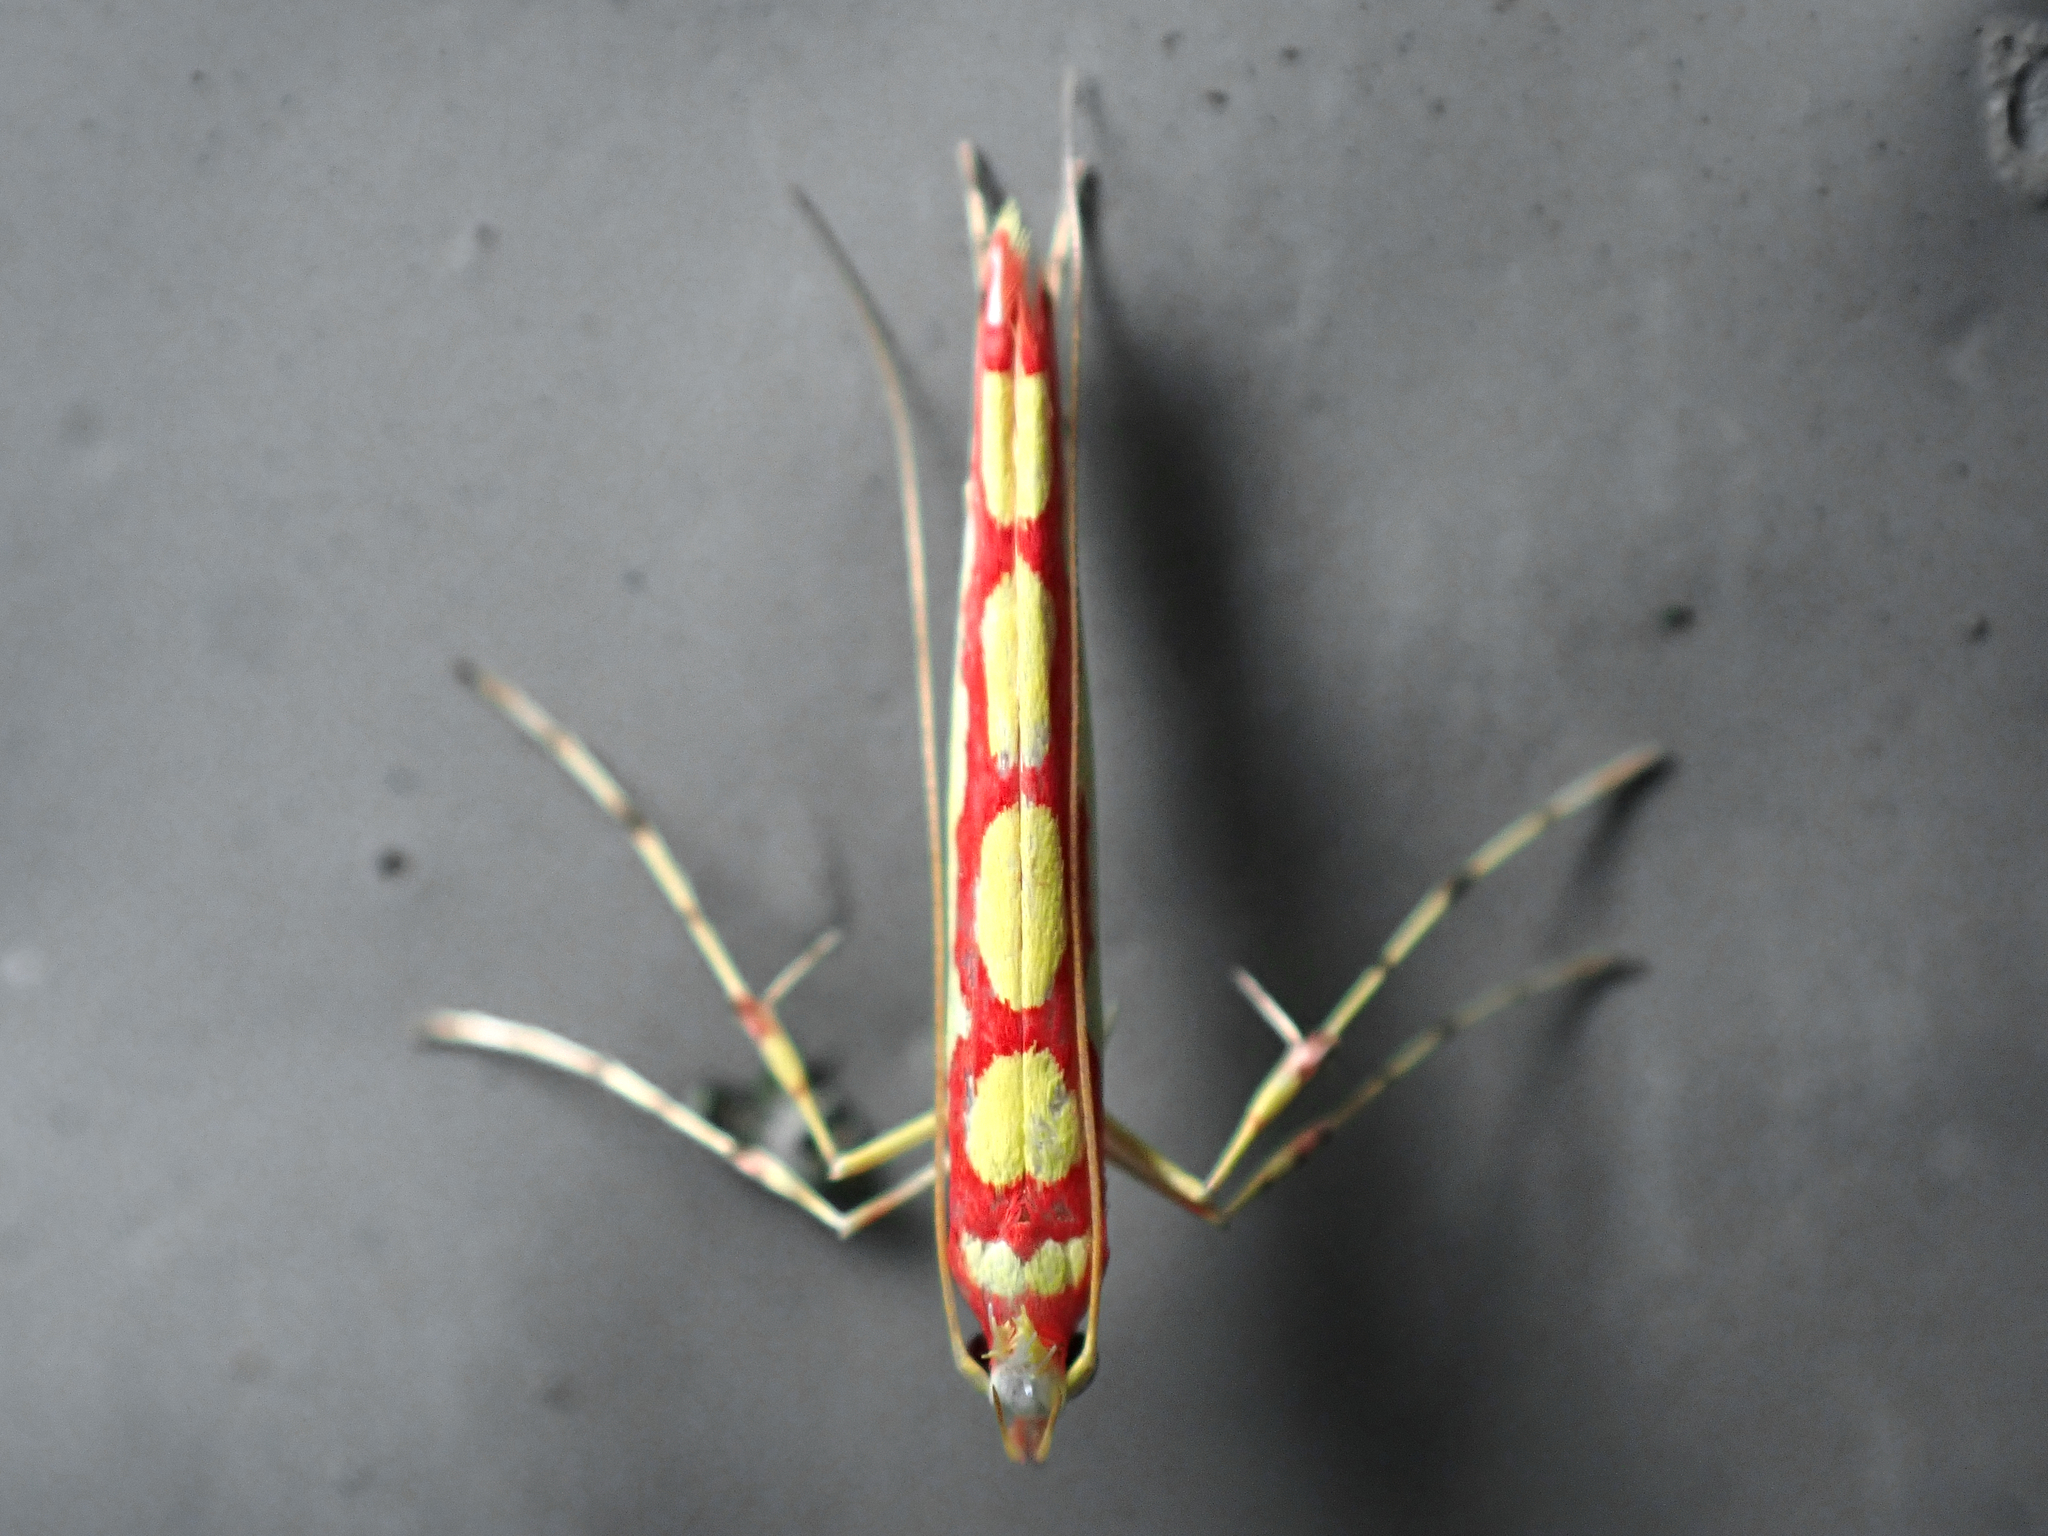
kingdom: Animalia
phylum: Arthropoda
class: Insecta
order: Lepidoptera
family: Gracillariidae
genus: Macarostola
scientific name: Macarostola miniella
